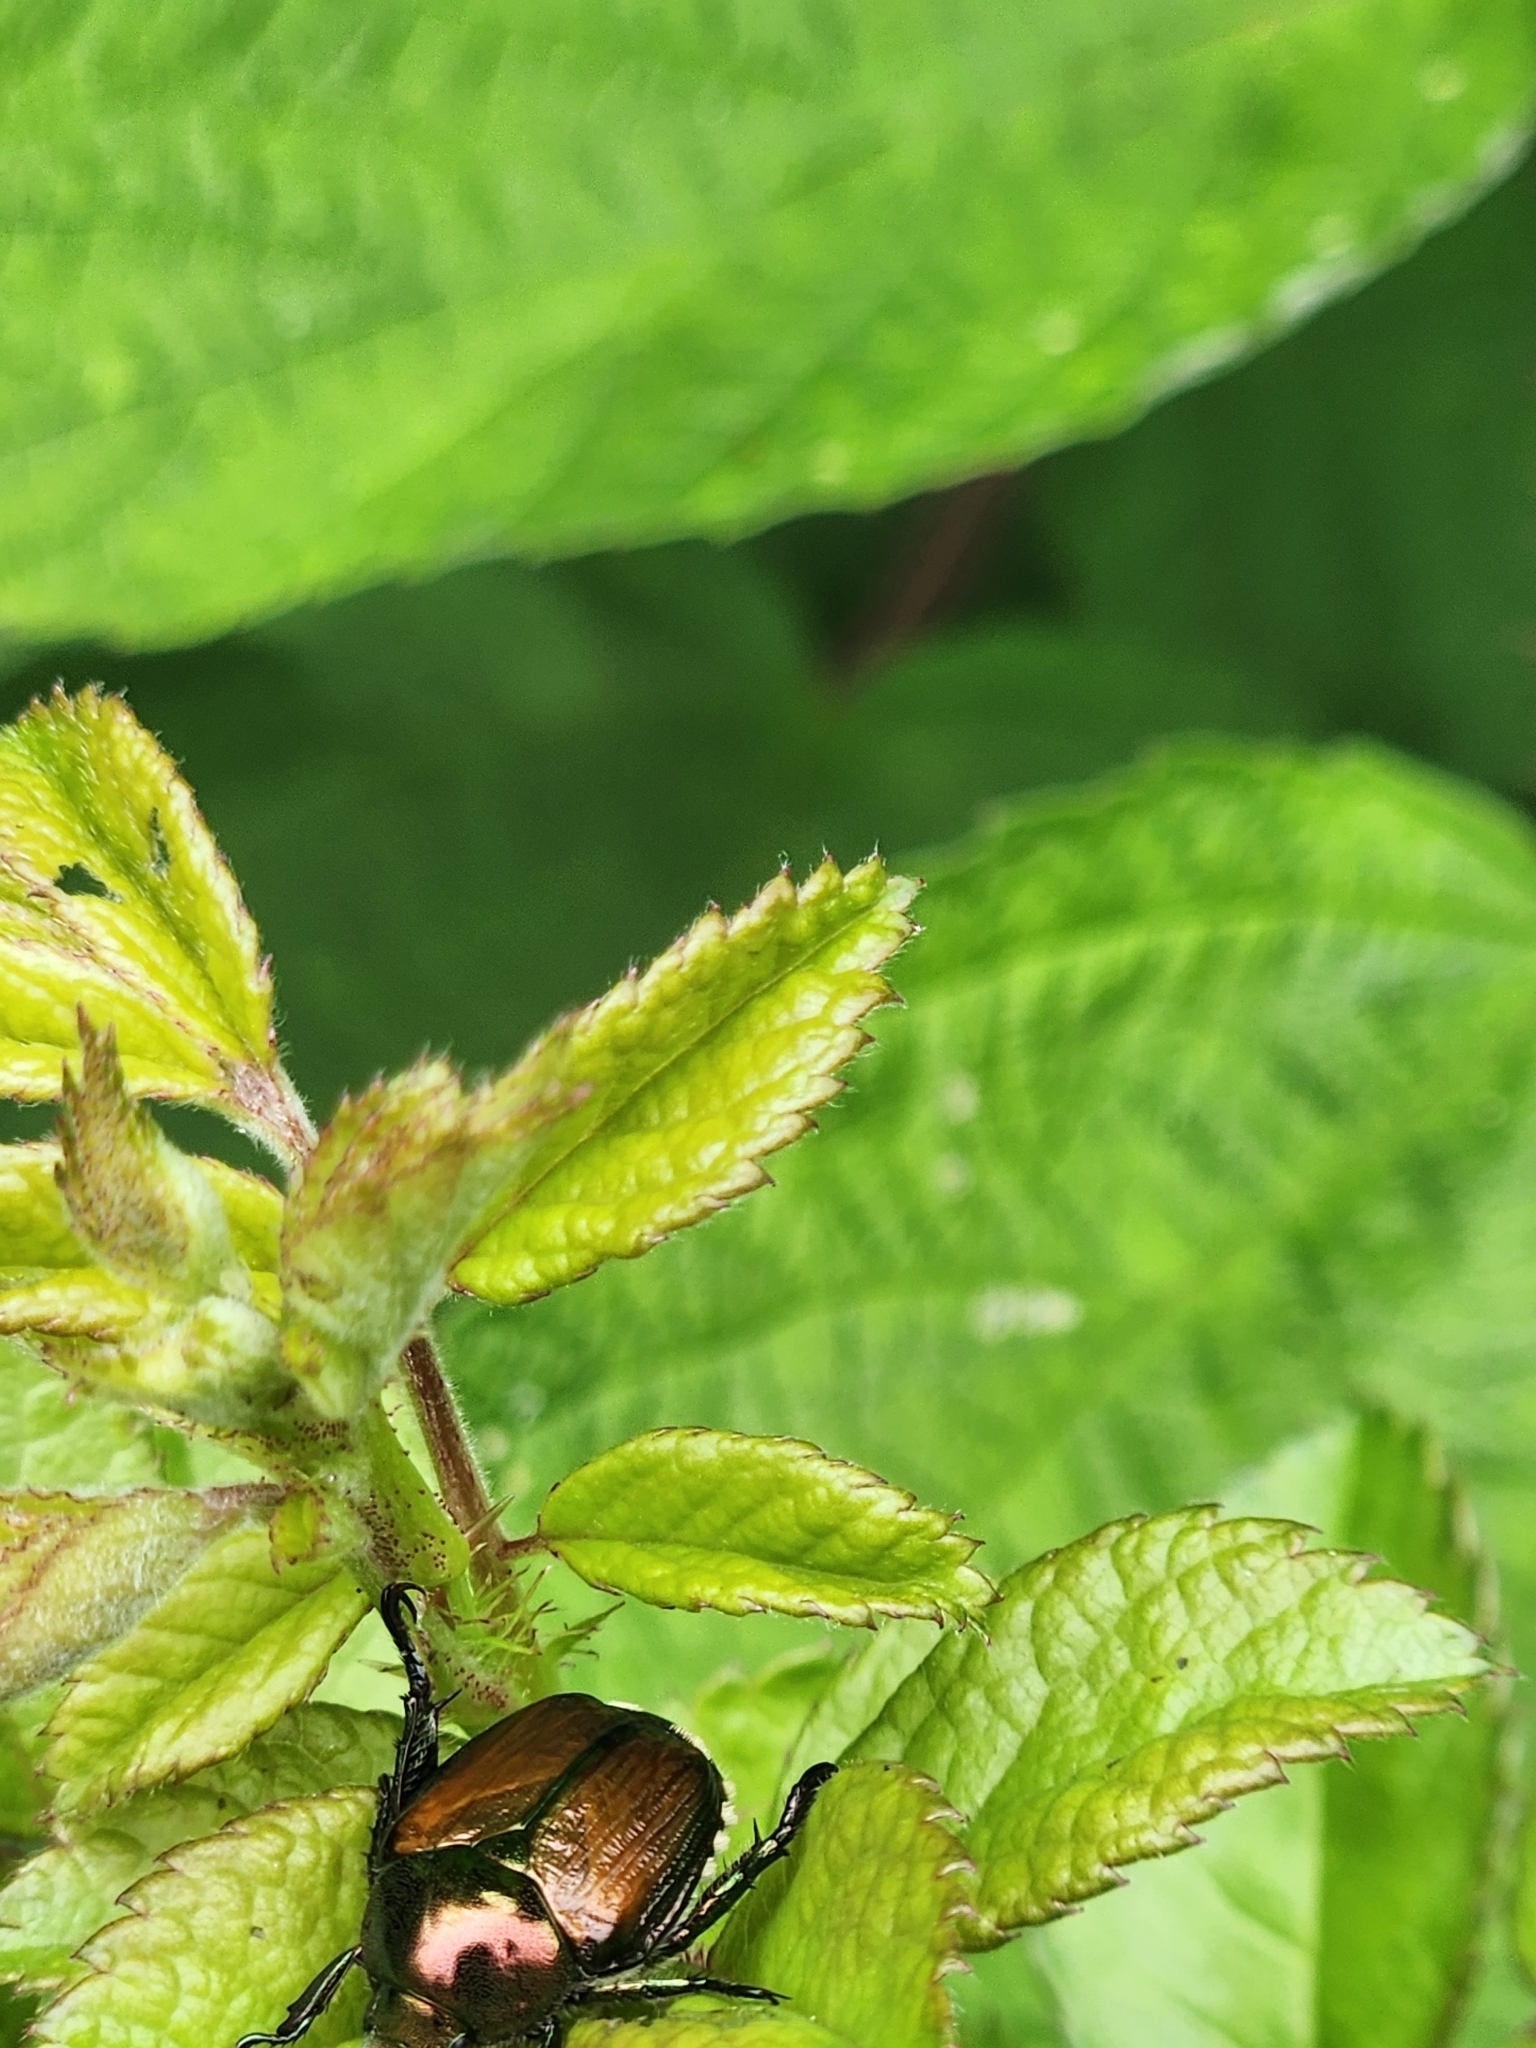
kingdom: Animalia
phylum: Arthropoda
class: Insecta
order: Coleoptera
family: Scarabaeidae
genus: Popillia
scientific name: Popillia japonica
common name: Japanese beetle
